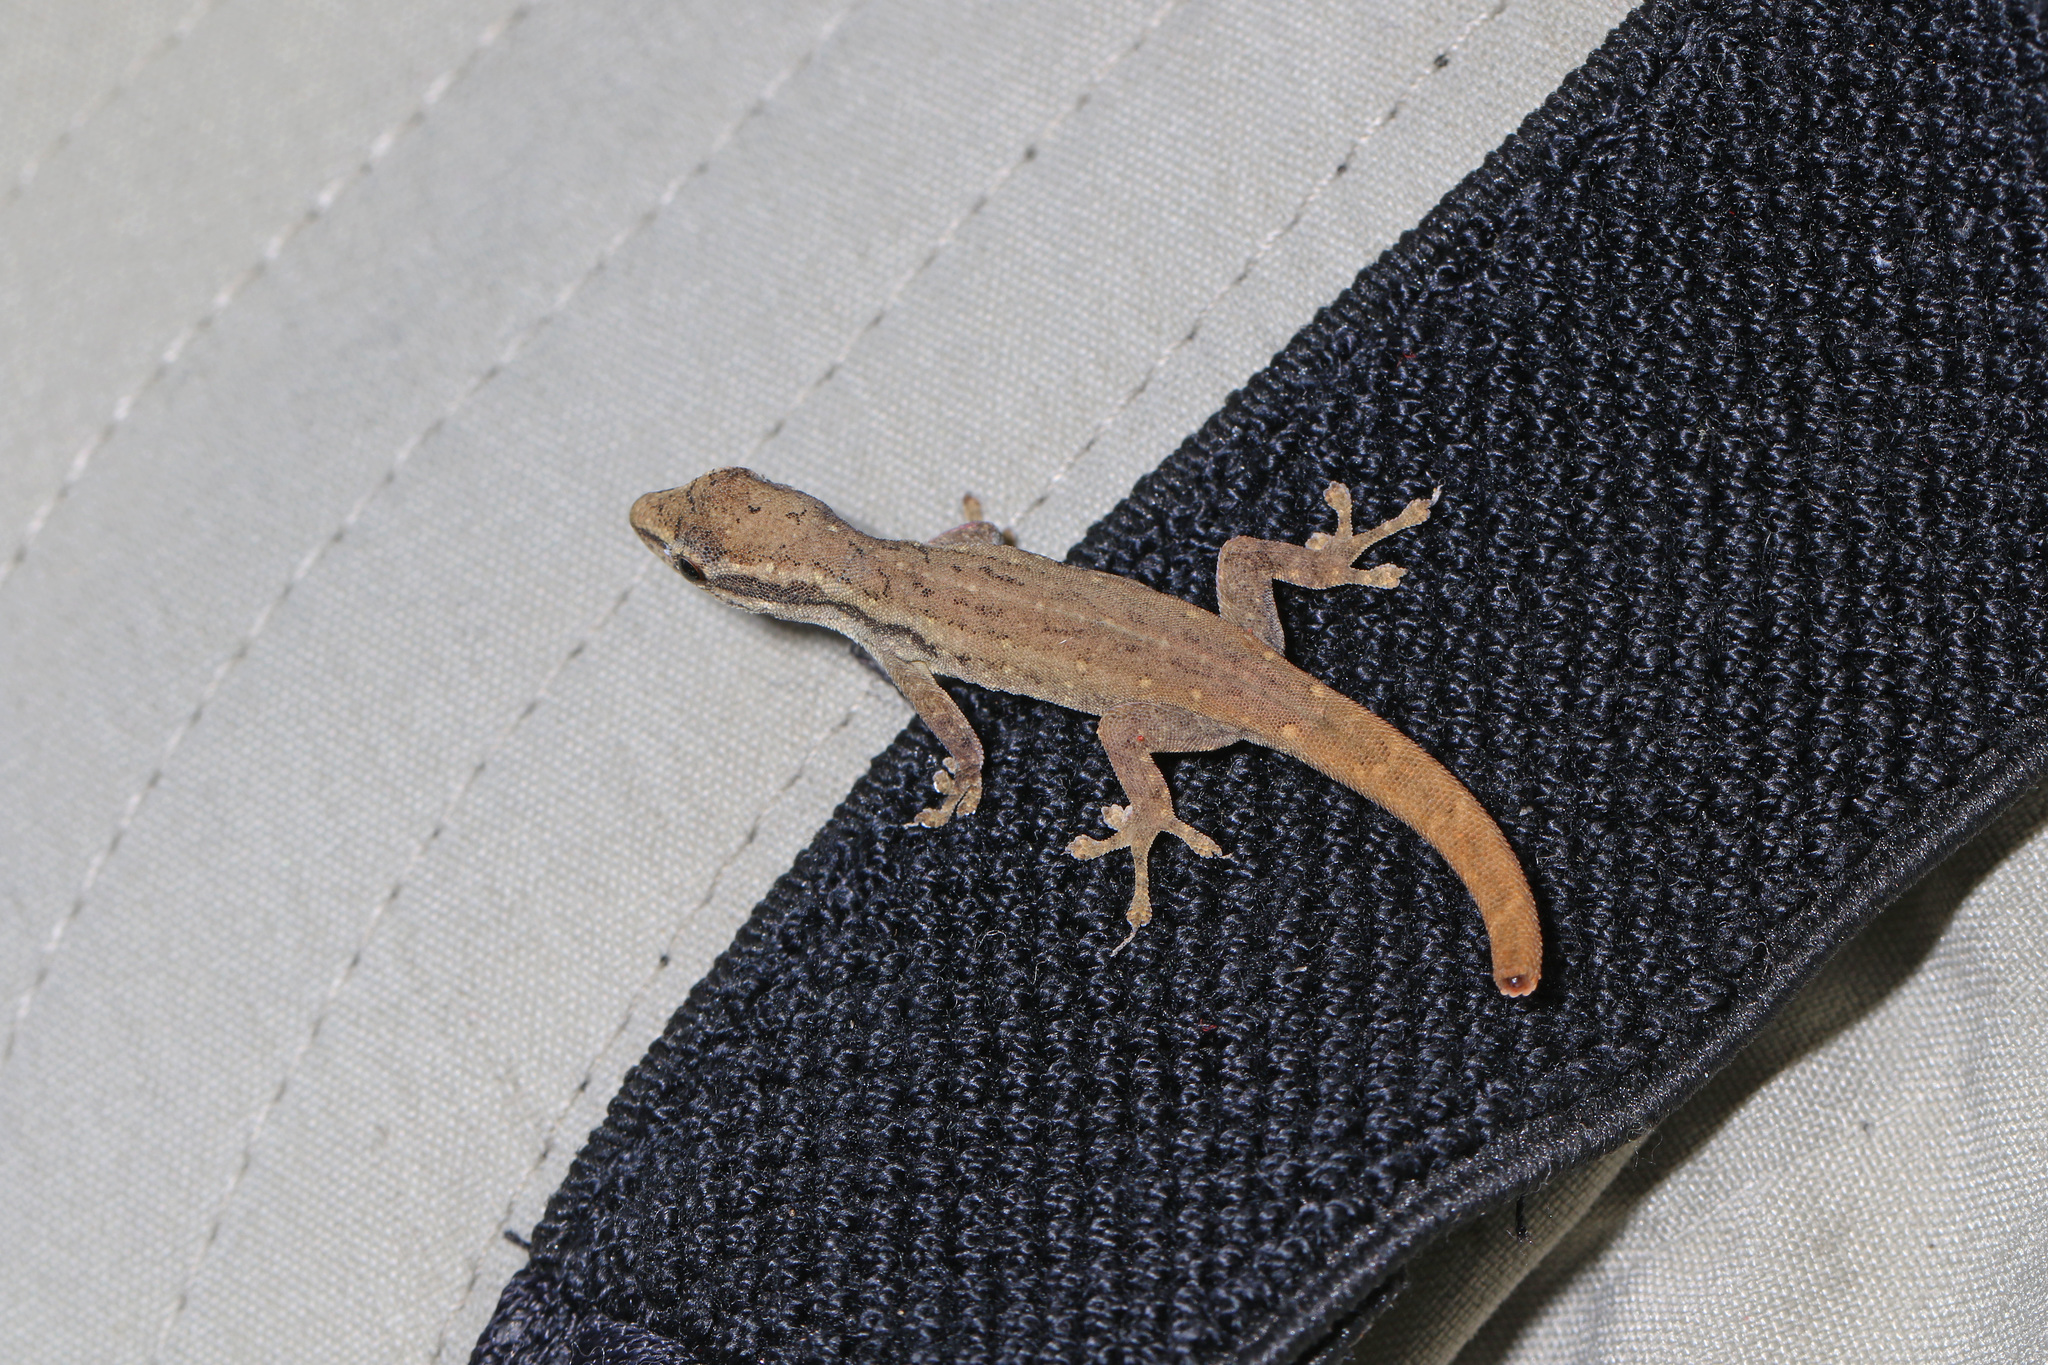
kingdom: Animalia
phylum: Chordata
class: Squamata
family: Gekkonidae
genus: Lygodactylus
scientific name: Lygodactylus capensis
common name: Cape dwarf gecko
